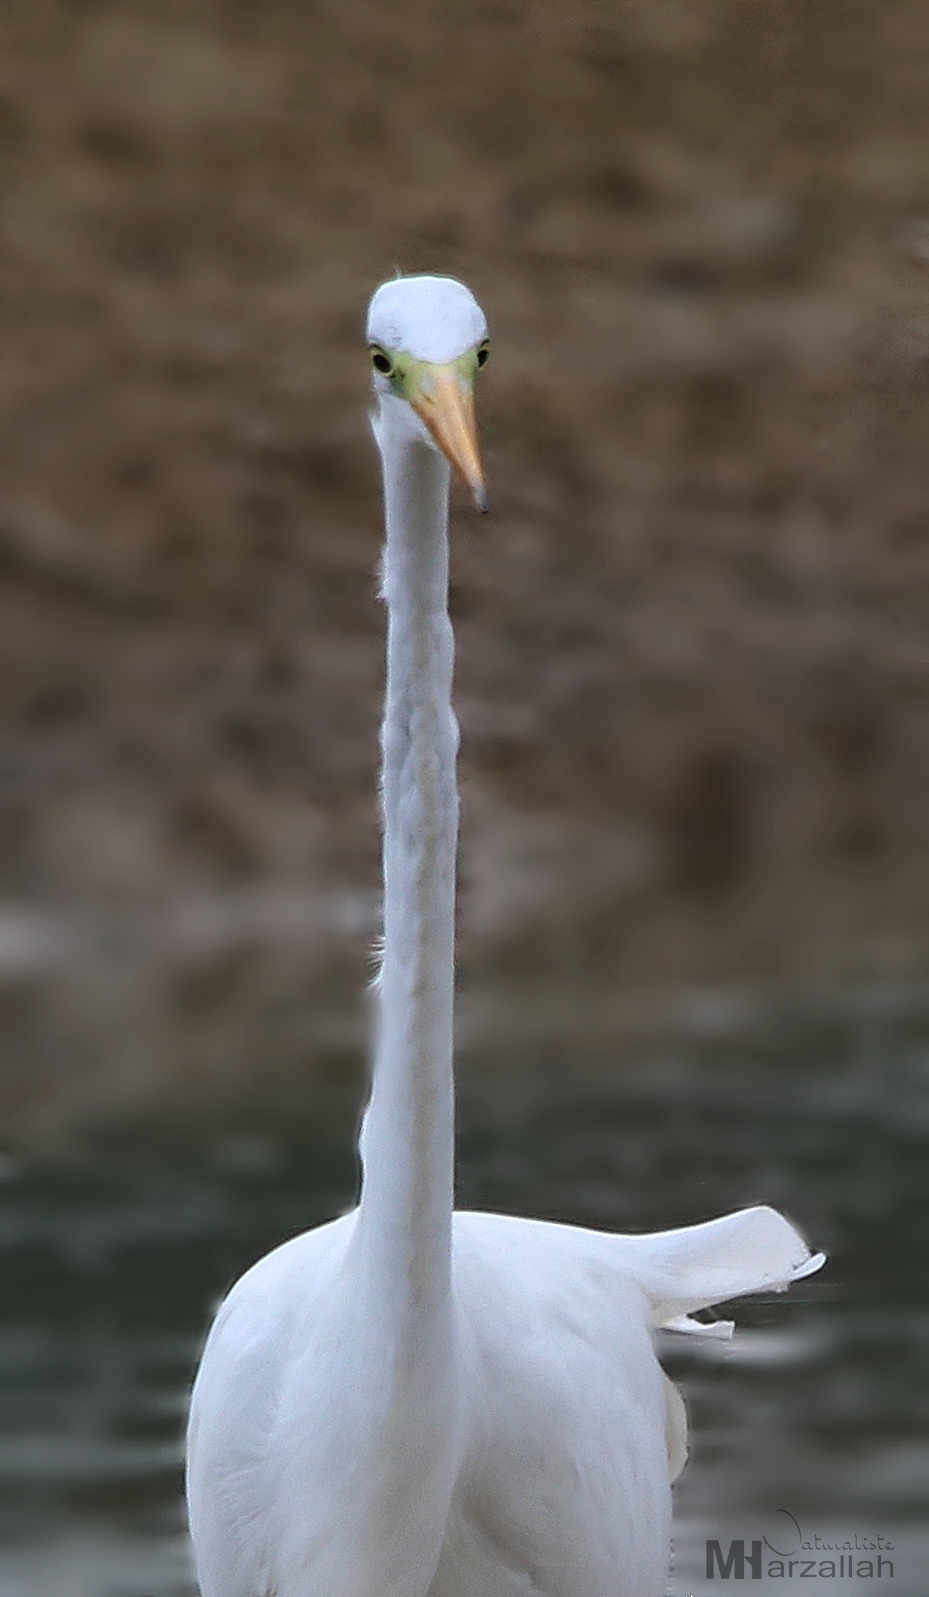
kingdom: Animalia
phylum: Chordata
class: Aves
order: Pelecaniformes
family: Ardeidae
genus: Ardea
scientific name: Ardea alba
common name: Great egret
